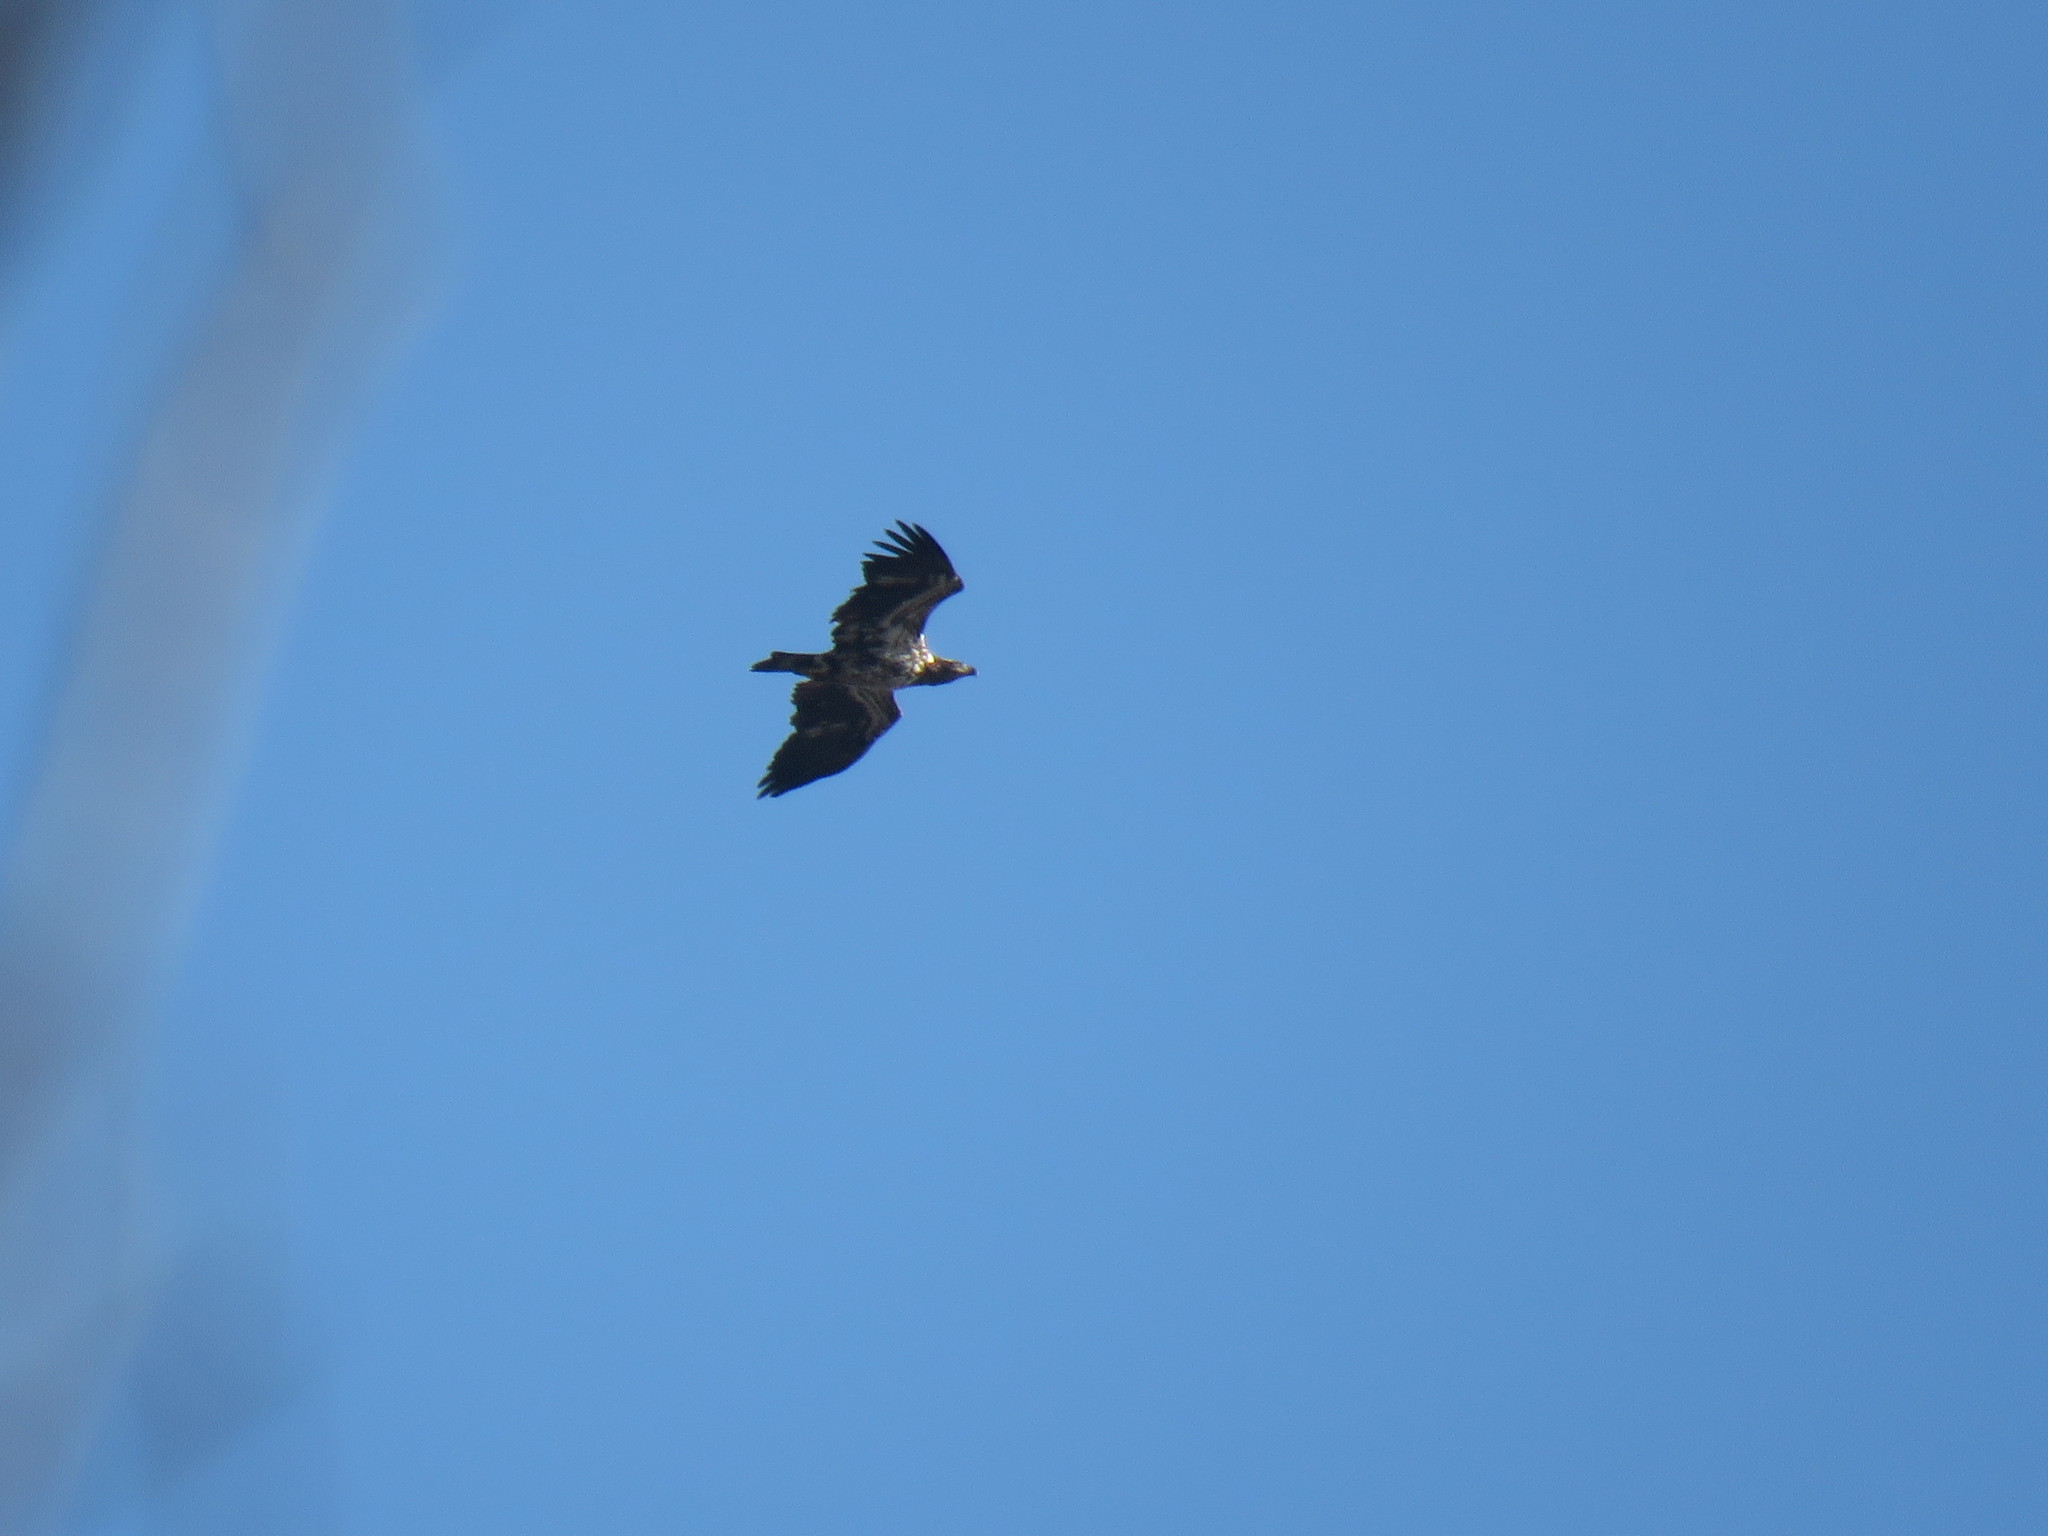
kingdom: Animalia
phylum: Chordata
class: Aves
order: Accipitriformes
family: Accipitridae
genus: Haliaeetus
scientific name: Haliaeetus leucocephalus
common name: Bald eagle
